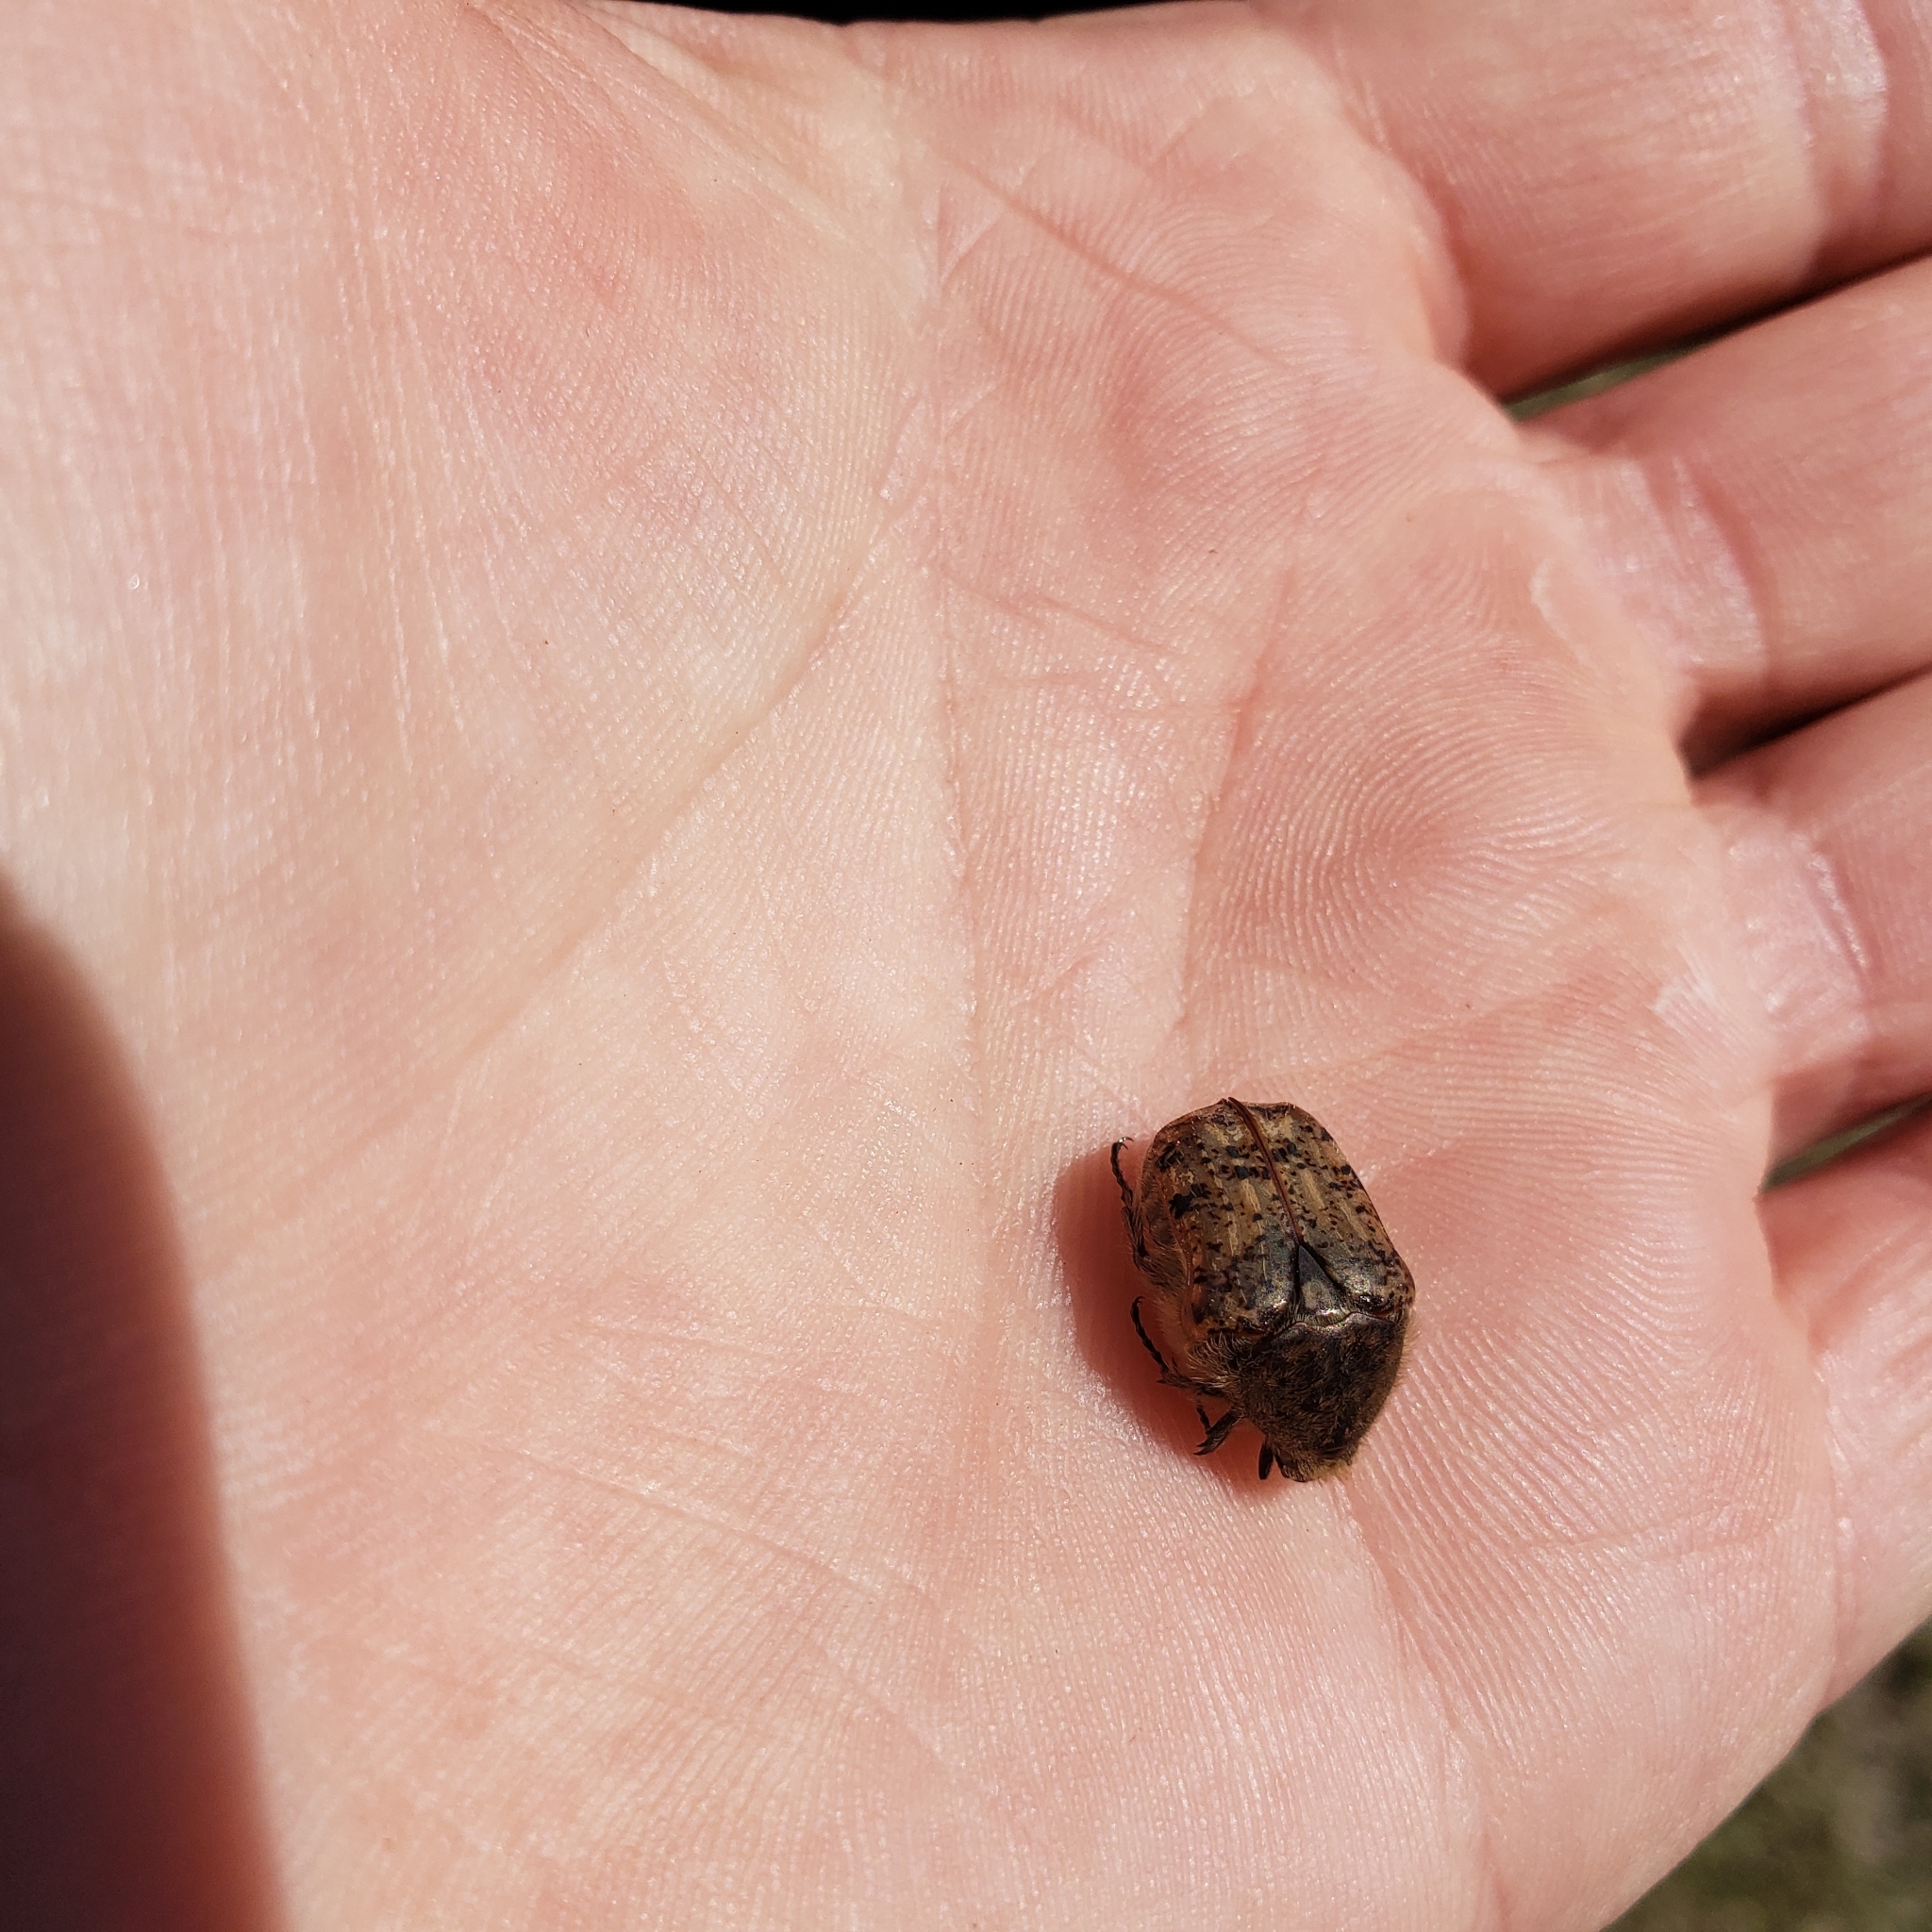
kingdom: Animalia
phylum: Arthropoda
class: Insecta
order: Coleoptera
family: Scarabaeidae
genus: Euphoria
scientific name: Euphoria inda
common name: Bumble flower beetle
